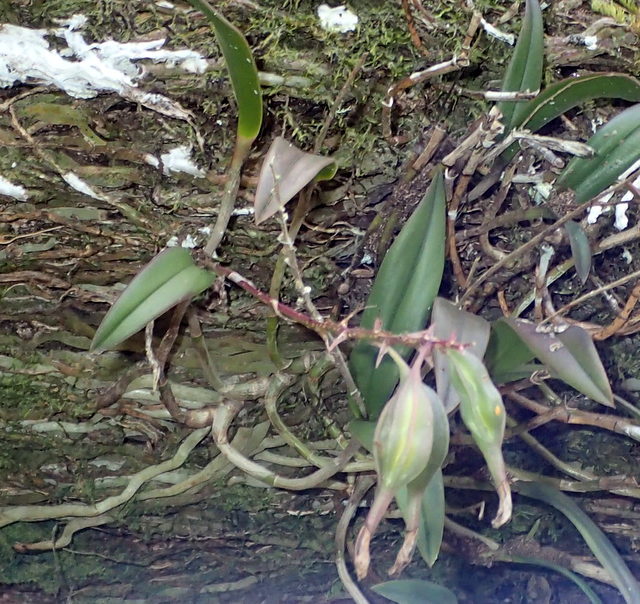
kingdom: Plantae
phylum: Tracheophyta
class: Liliopsida
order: Asparagales
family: Orchidaceae
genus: Epidendrum
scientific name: Epidendrum conopseum
